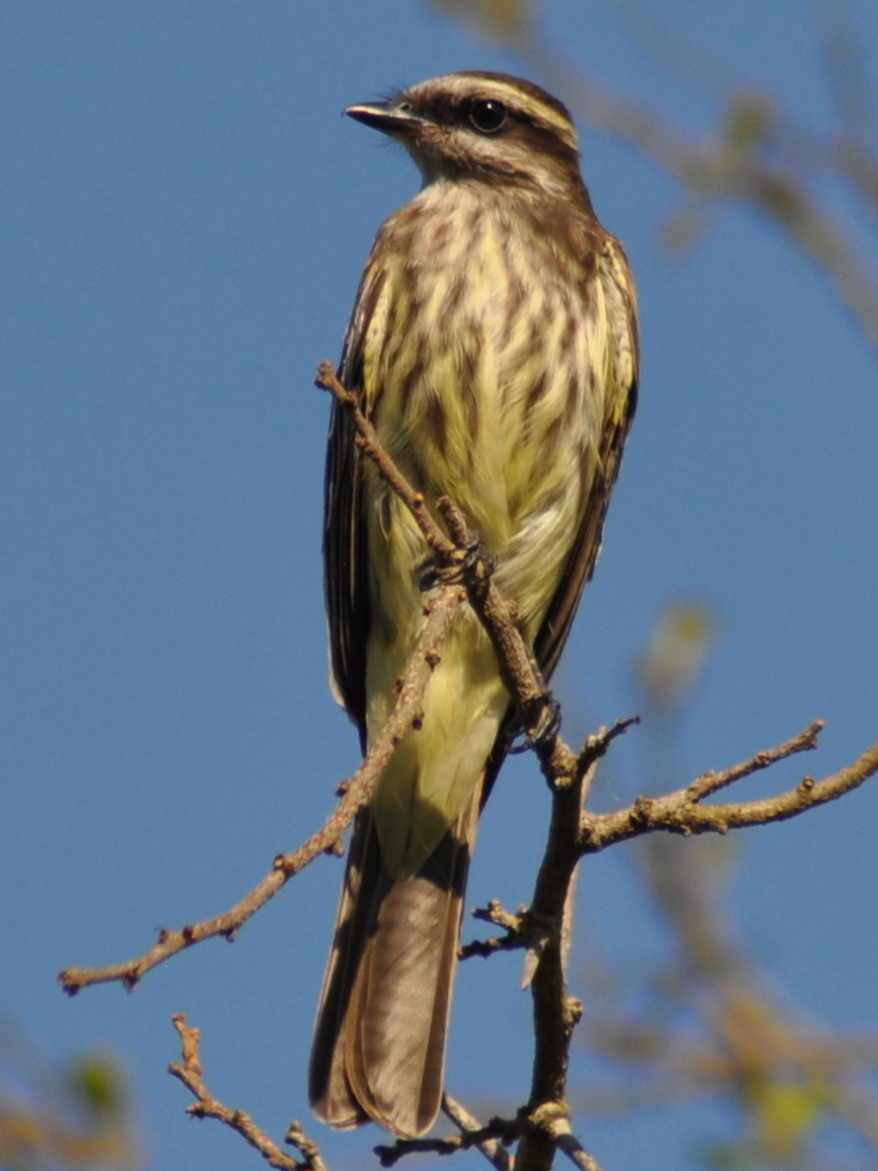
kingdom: Animalia
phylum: Chordata
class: Aves
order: Passeriformes
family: Tyrannidae
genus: Empidonomus
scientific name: Empidonomus varius
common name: Variegated flycatcher
